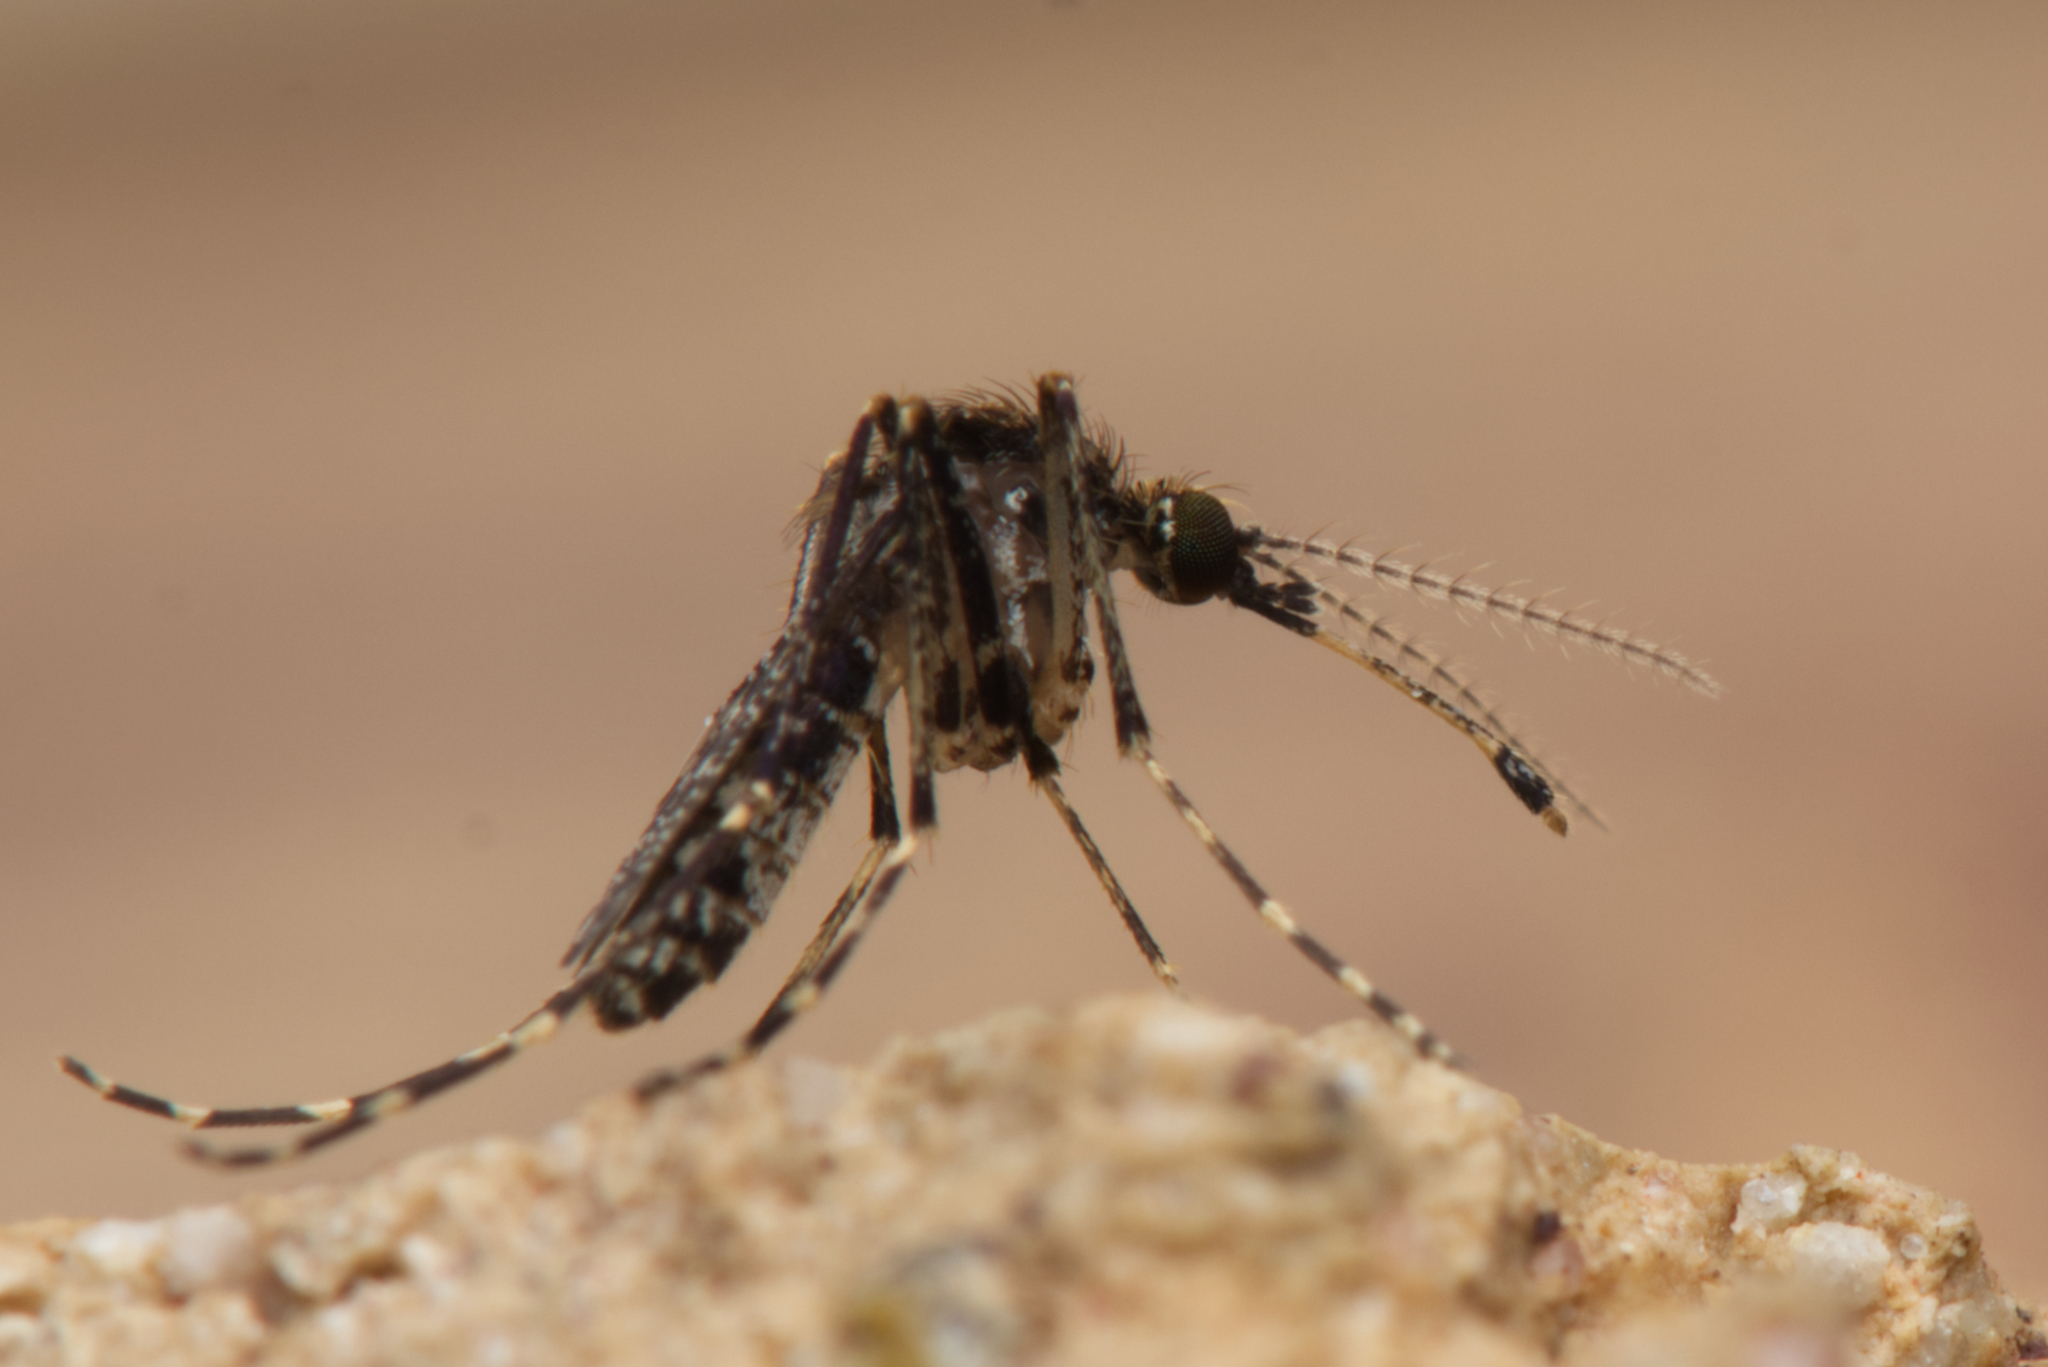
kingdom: Animalia
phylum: Arthropoda
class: Insecta
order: Diptera
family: Culicidae
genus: Mimomyia
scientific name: Mimomyia elegans
